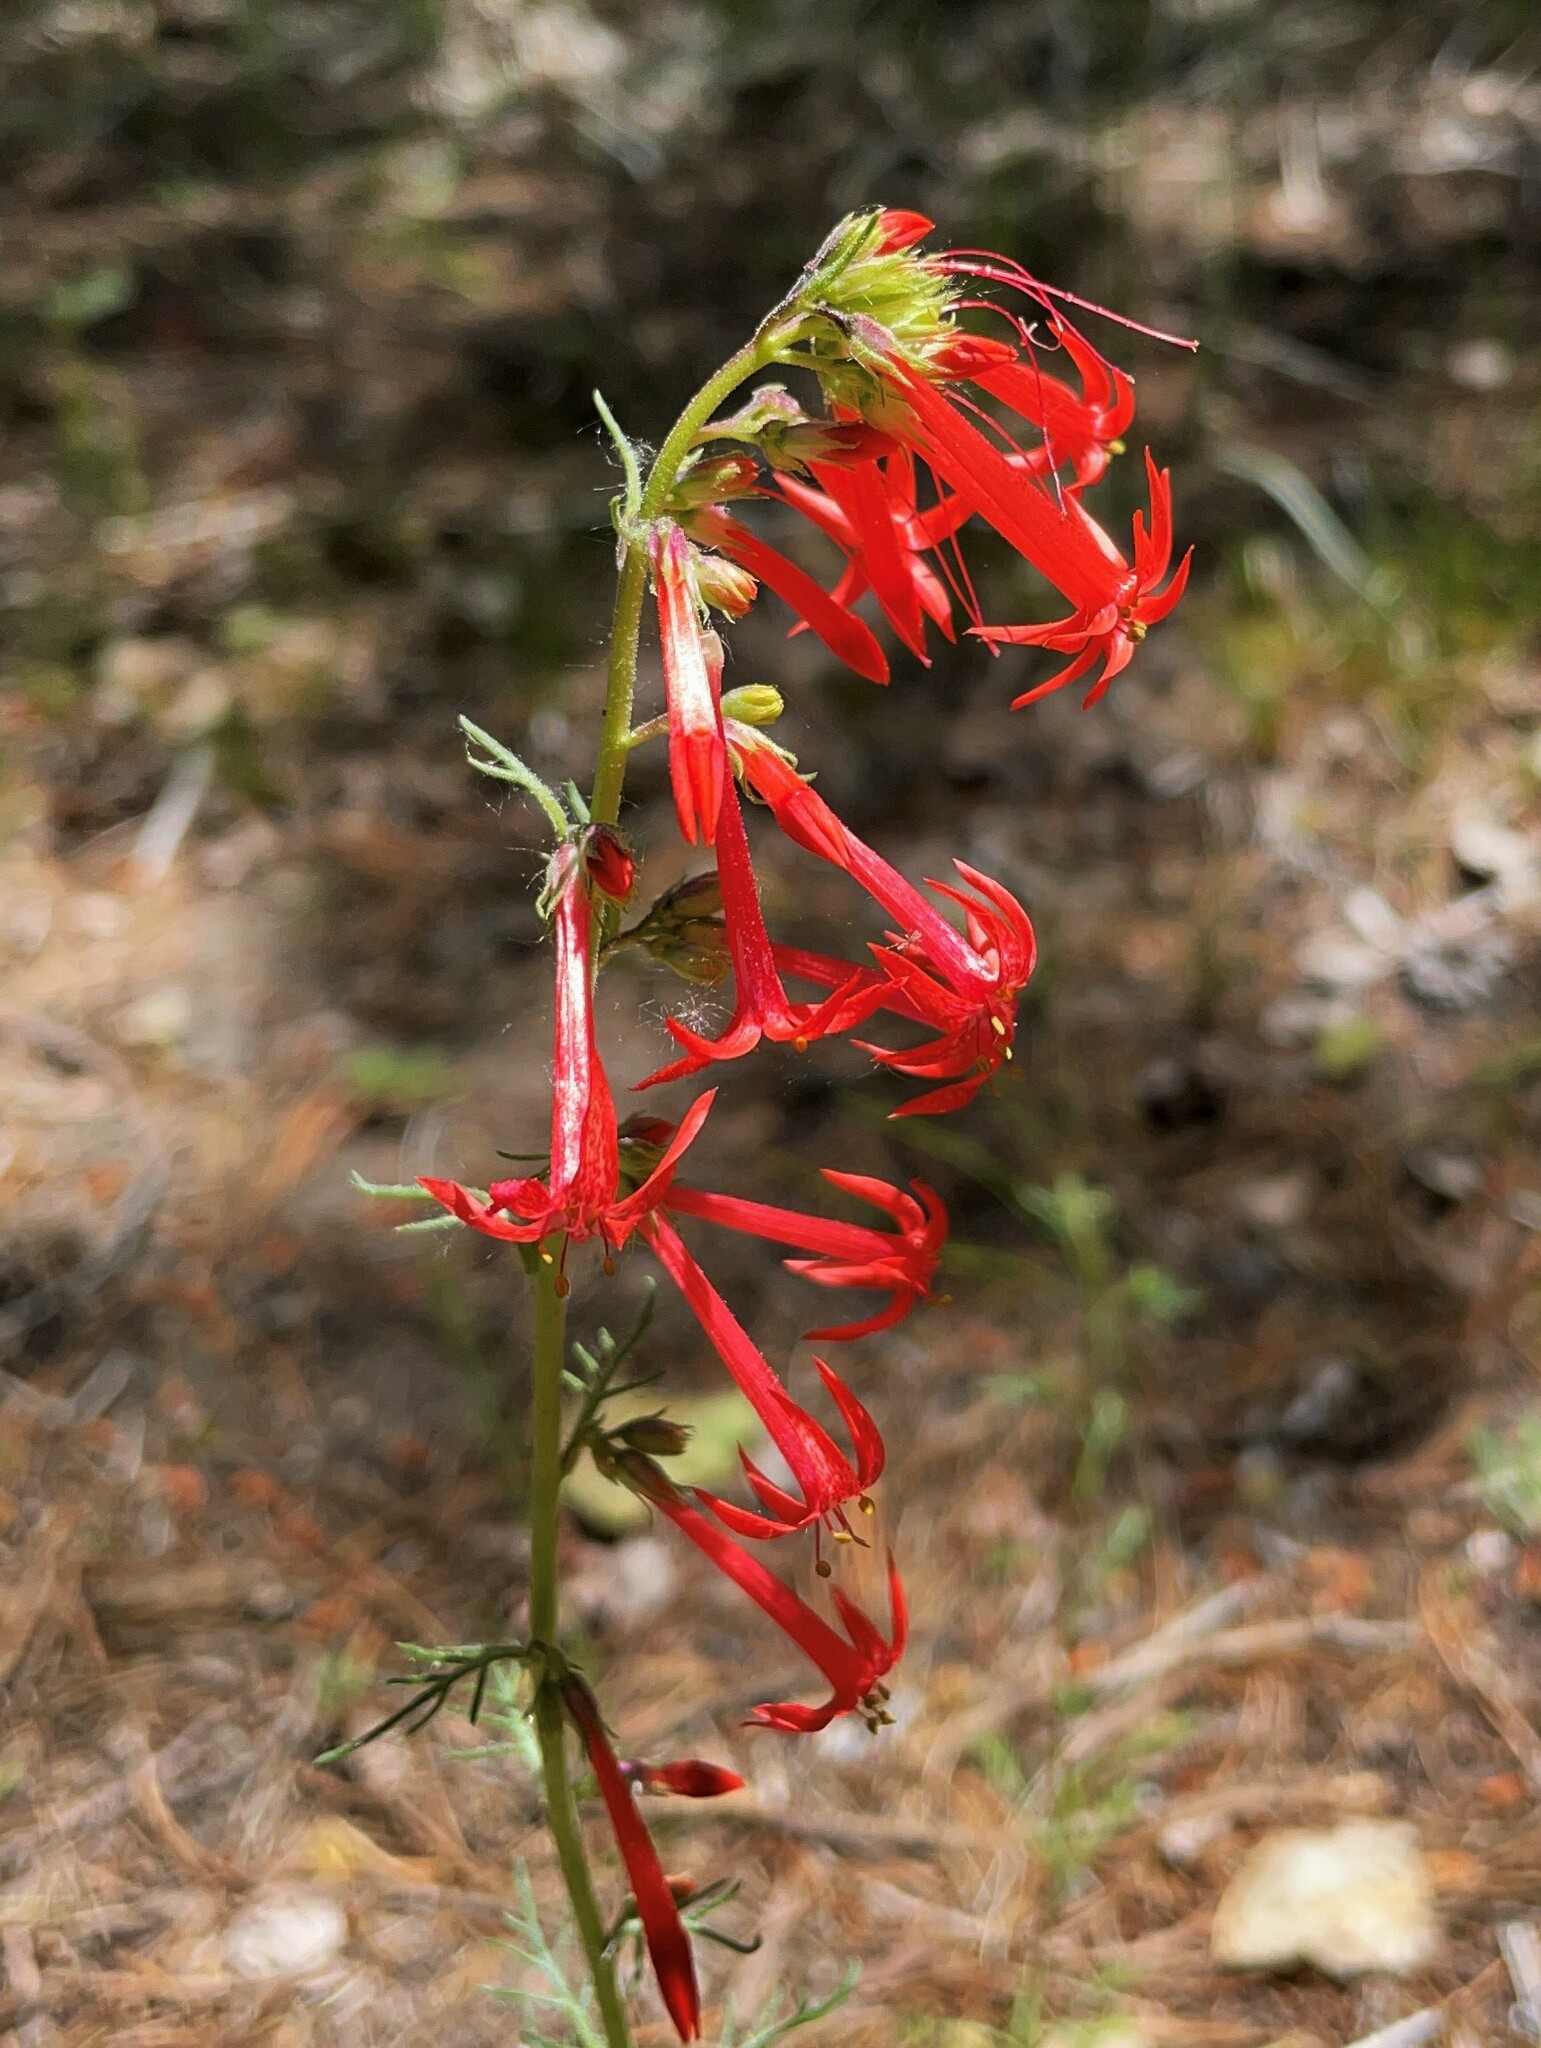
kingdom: Plantae
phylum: Tracheophyta
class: Magnoliopsida
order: Ericales
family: Polemoniaceae
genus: Ipomopsis
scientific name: Ipomopsis aggregata
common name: Scarlet gilia
